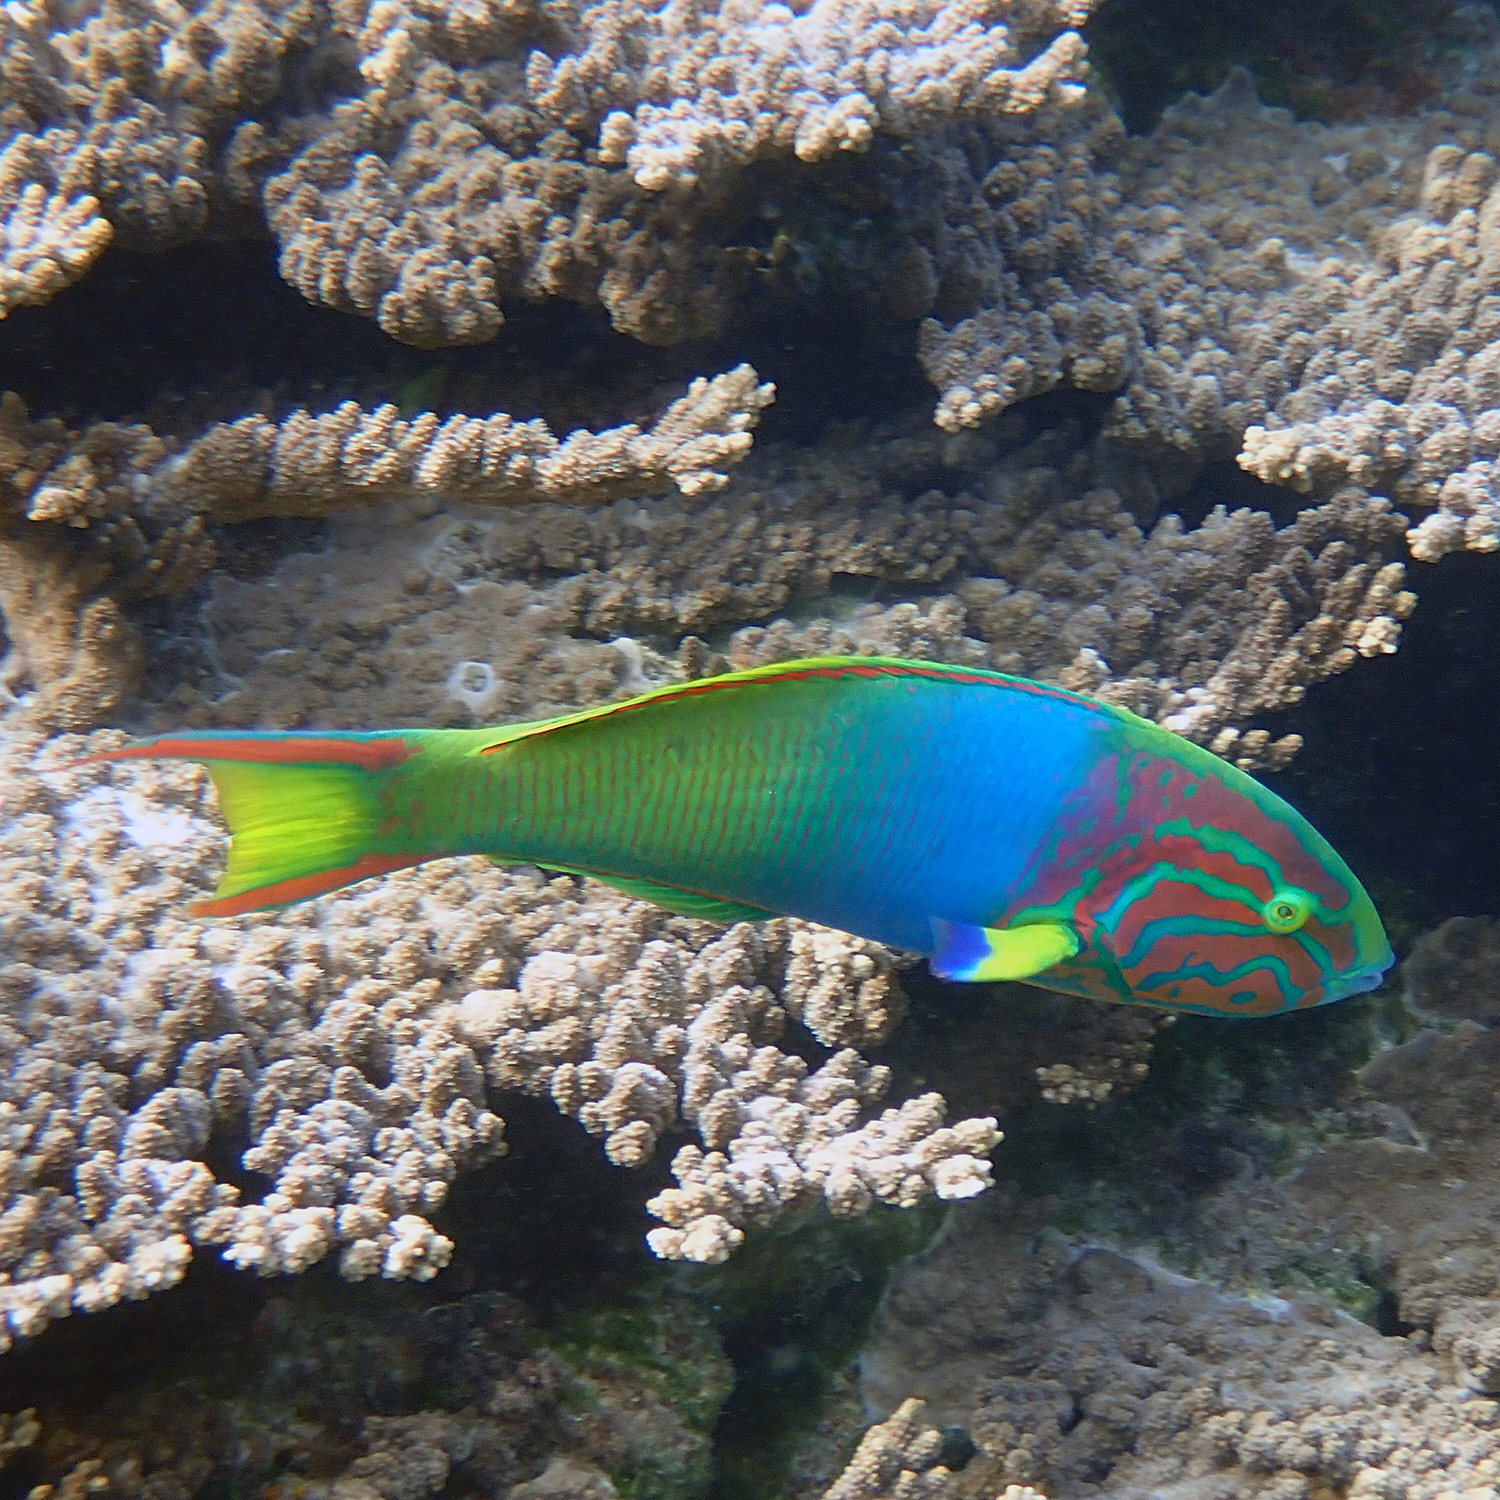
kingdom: Animalia
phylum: Chordata
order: Perciformes
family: Labridae
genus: Thalassoma
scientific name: Thalassoma lutescens
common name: Green moon wrasse
